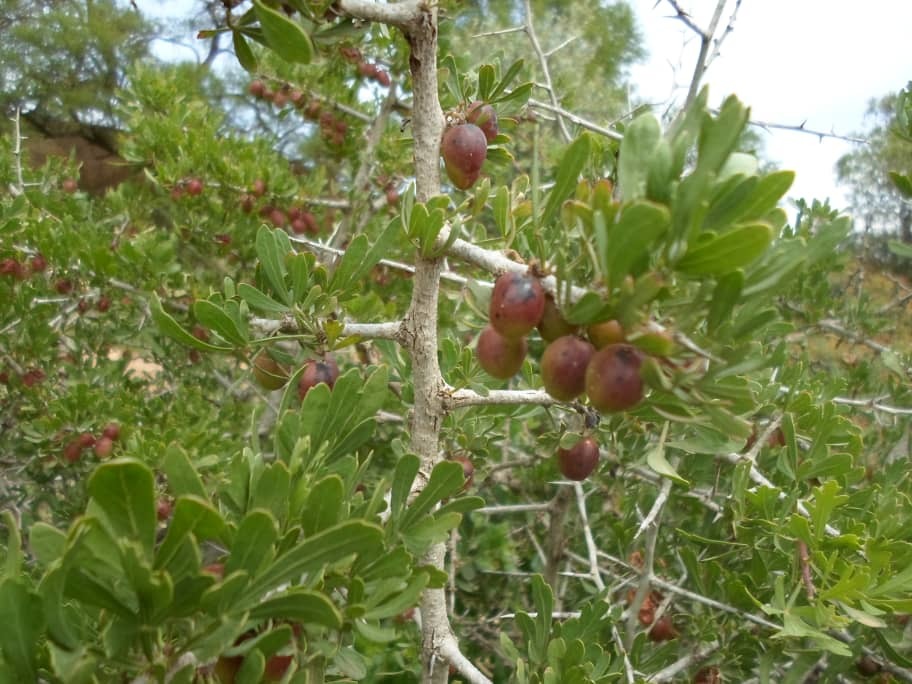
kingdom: Plantae
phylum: Tracheophyta
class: Magnoliopsida
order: Sapindales
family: Anacardiaceae
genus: Searsia
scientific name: Searsia pentaphylla
